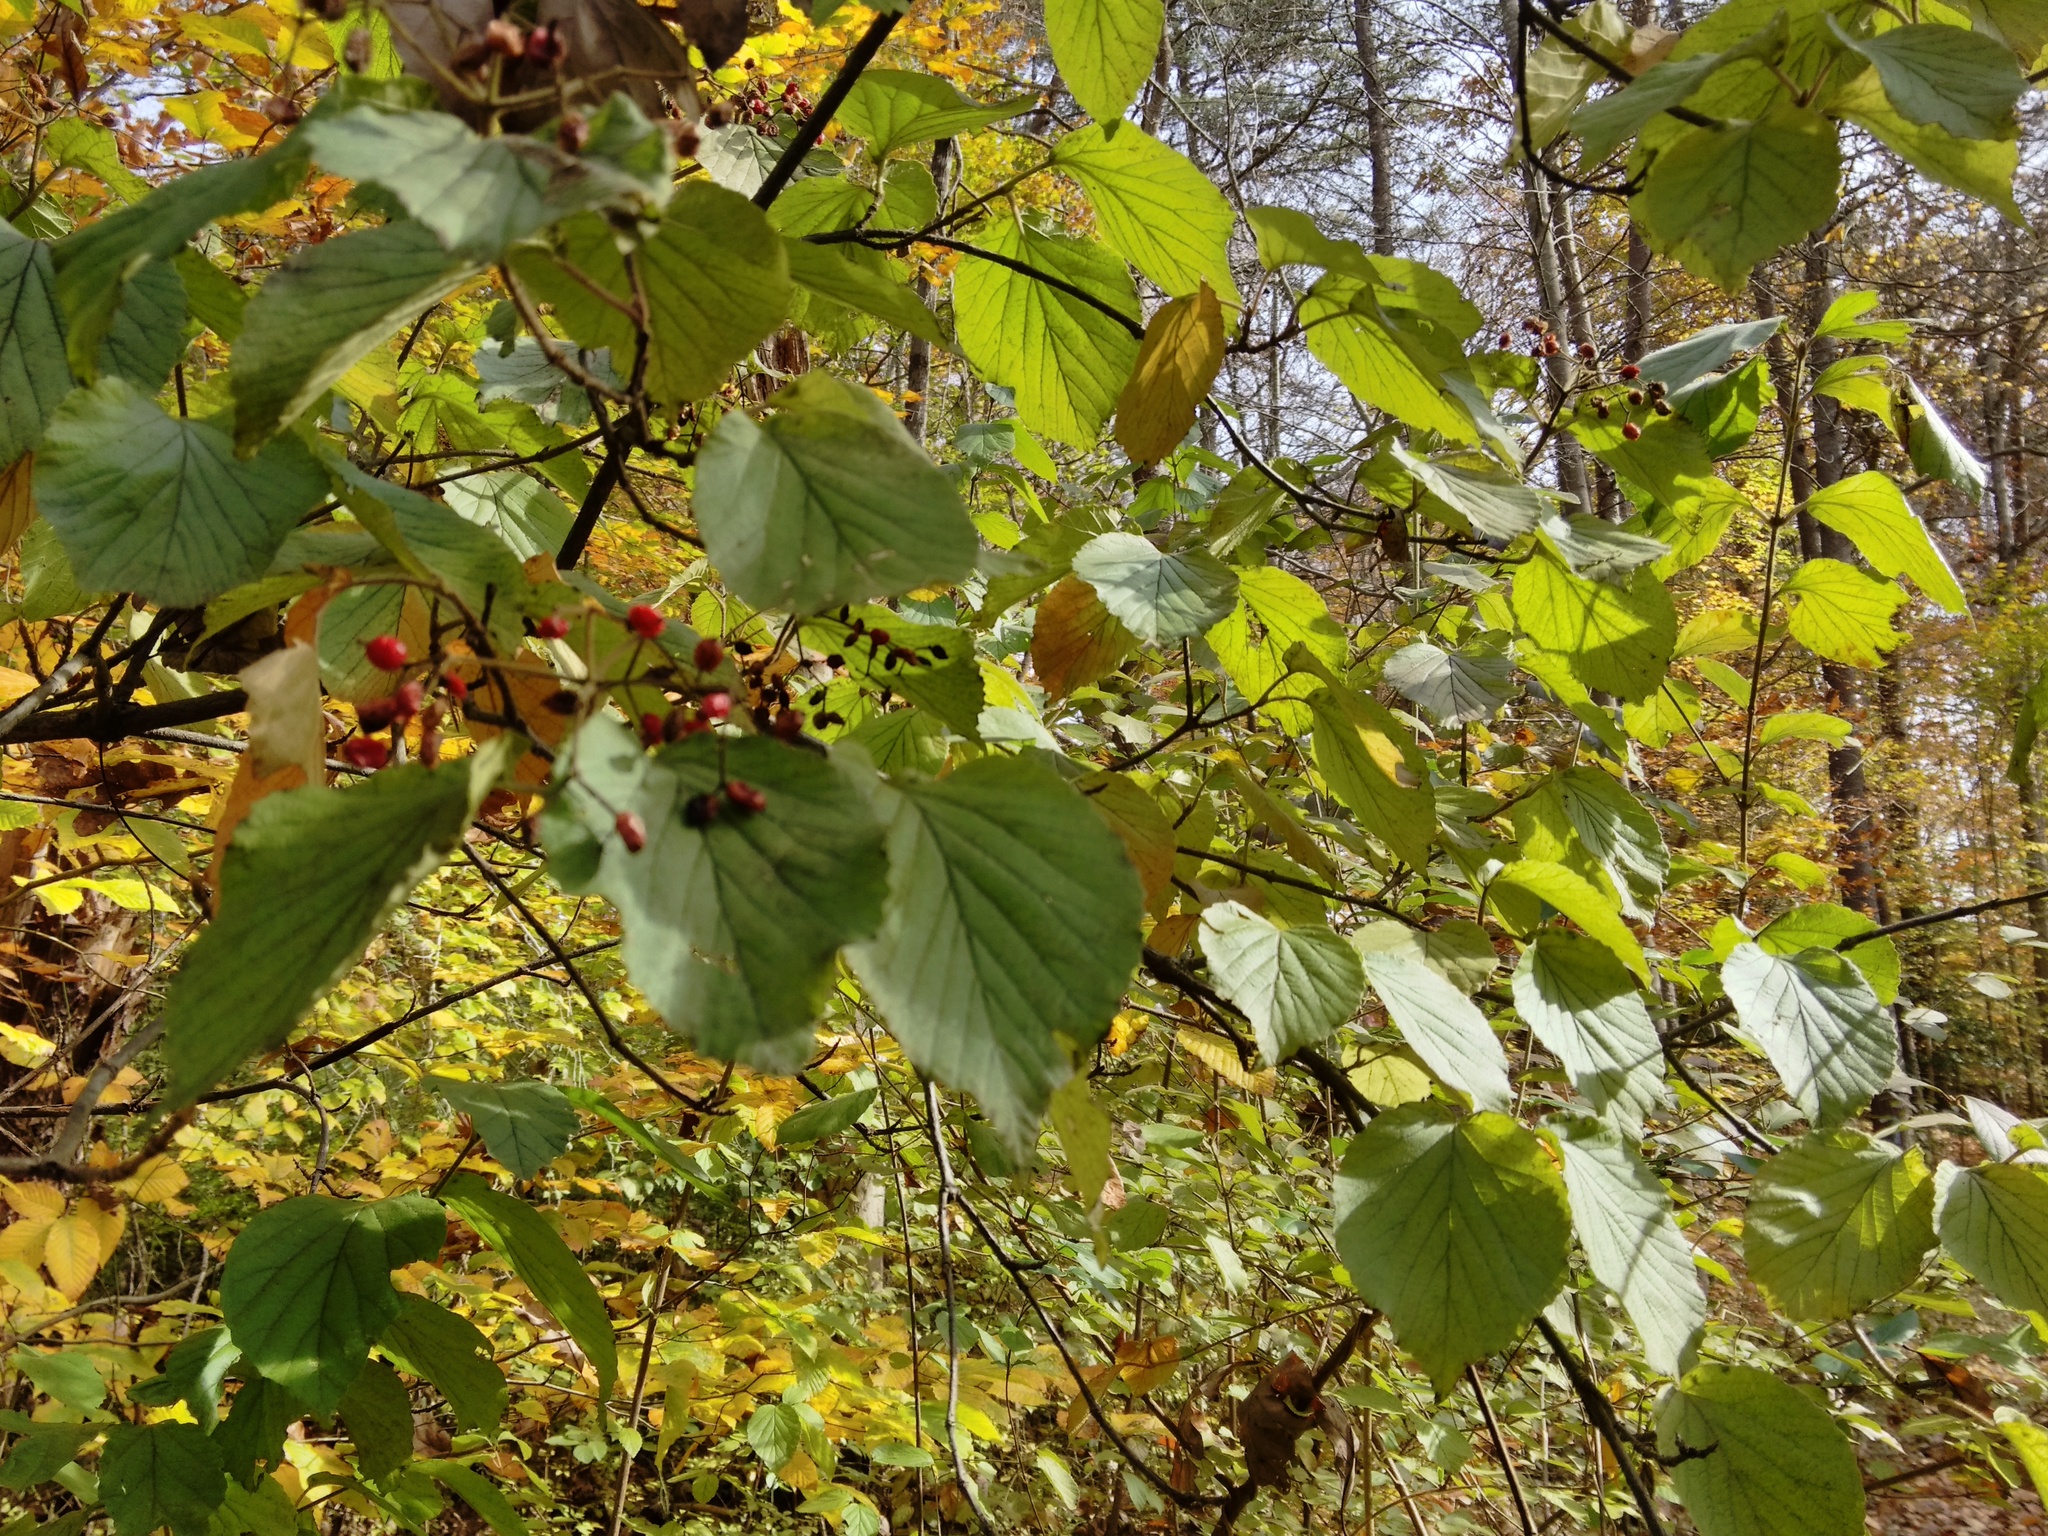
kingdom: Plantae
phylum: Tracheophyta
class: Magnoliopsida
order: Dipsacales
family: Viburnaceae
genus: Viburnum
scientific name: Viburnum dilatatum
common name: Linden arrowwood
